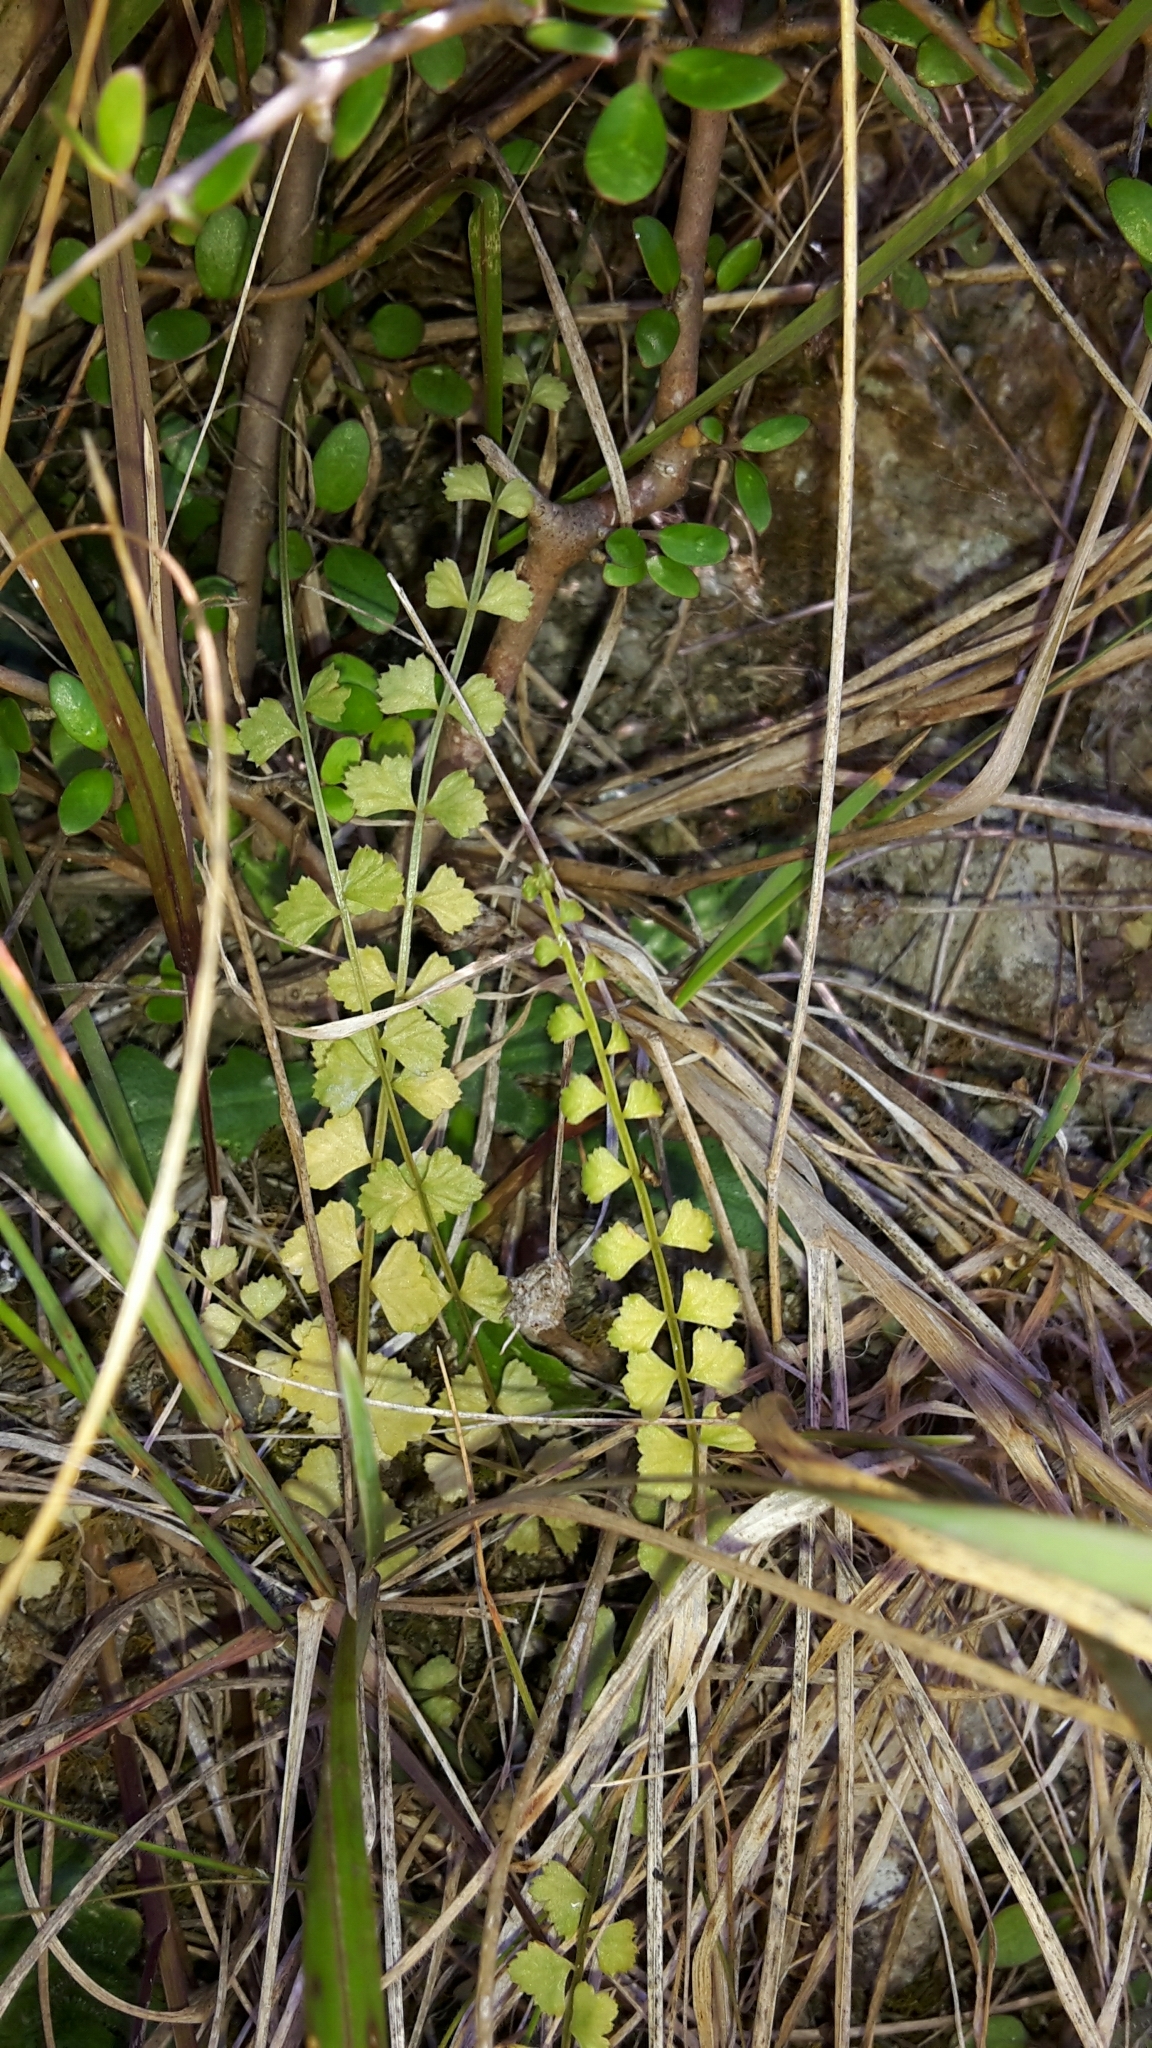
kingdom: Plantae
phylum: Tracheophyta
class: Polypodiopsida
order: Polypodiales
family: Aspleniaceae
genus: Asplenium
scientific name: Asplenium flabellifolium
